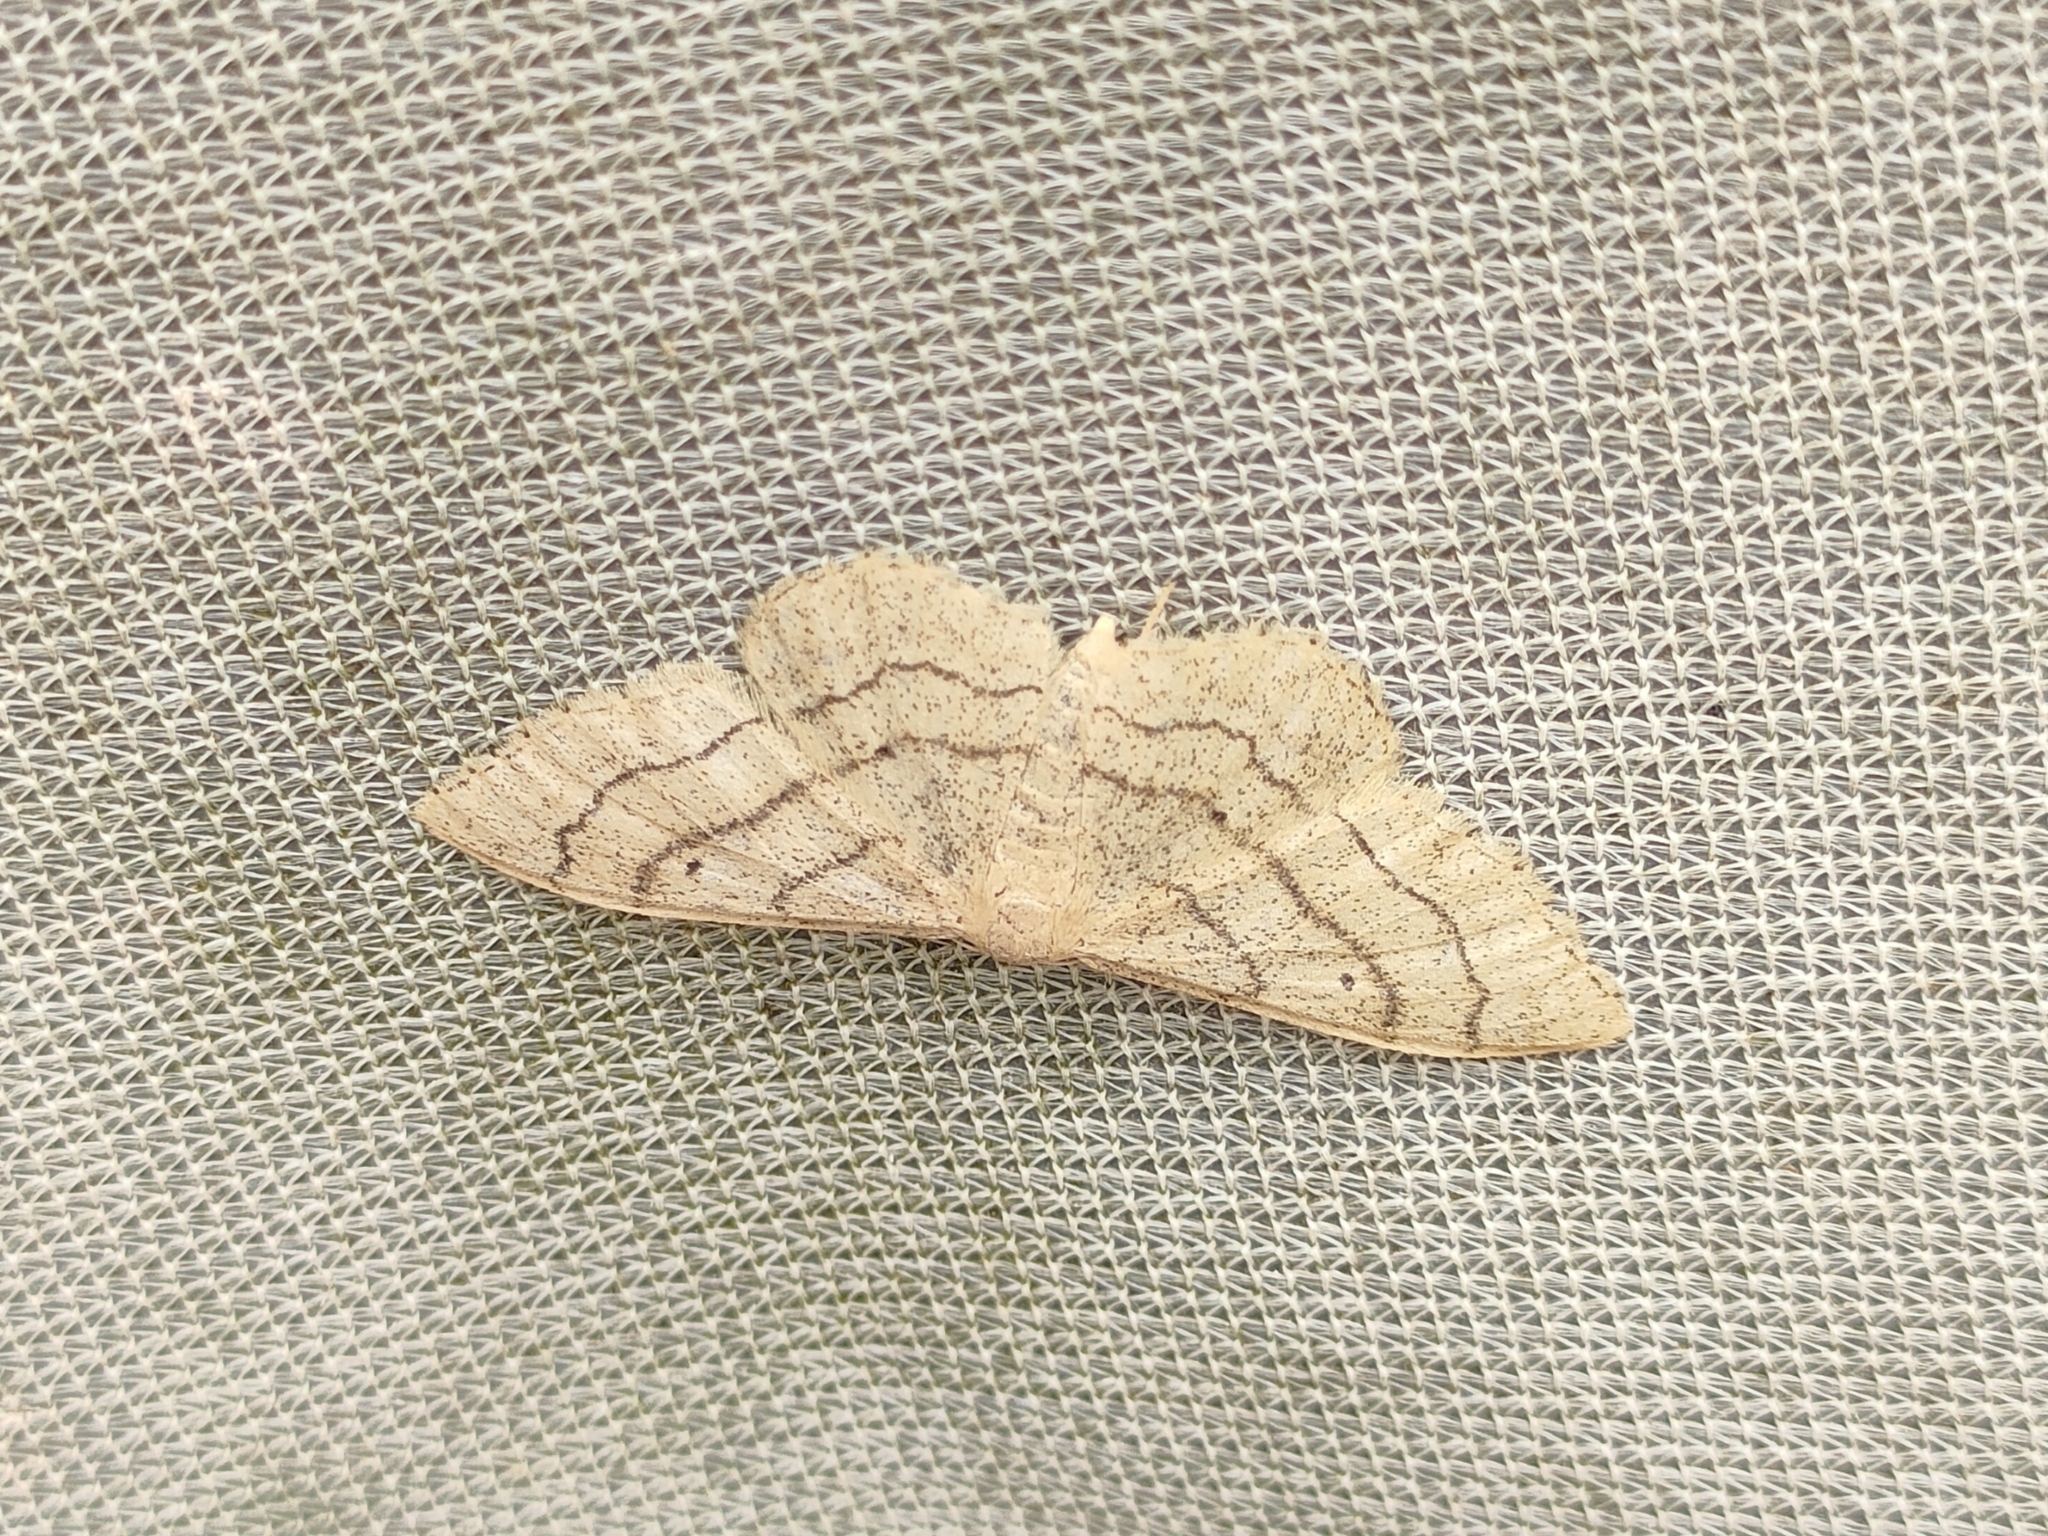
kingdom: Animalia
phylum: Arthropoda
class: Insecta
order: Lepidoptera
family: Geometridae
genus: Idaea
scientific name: Idaea aversata
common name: Riband wave
